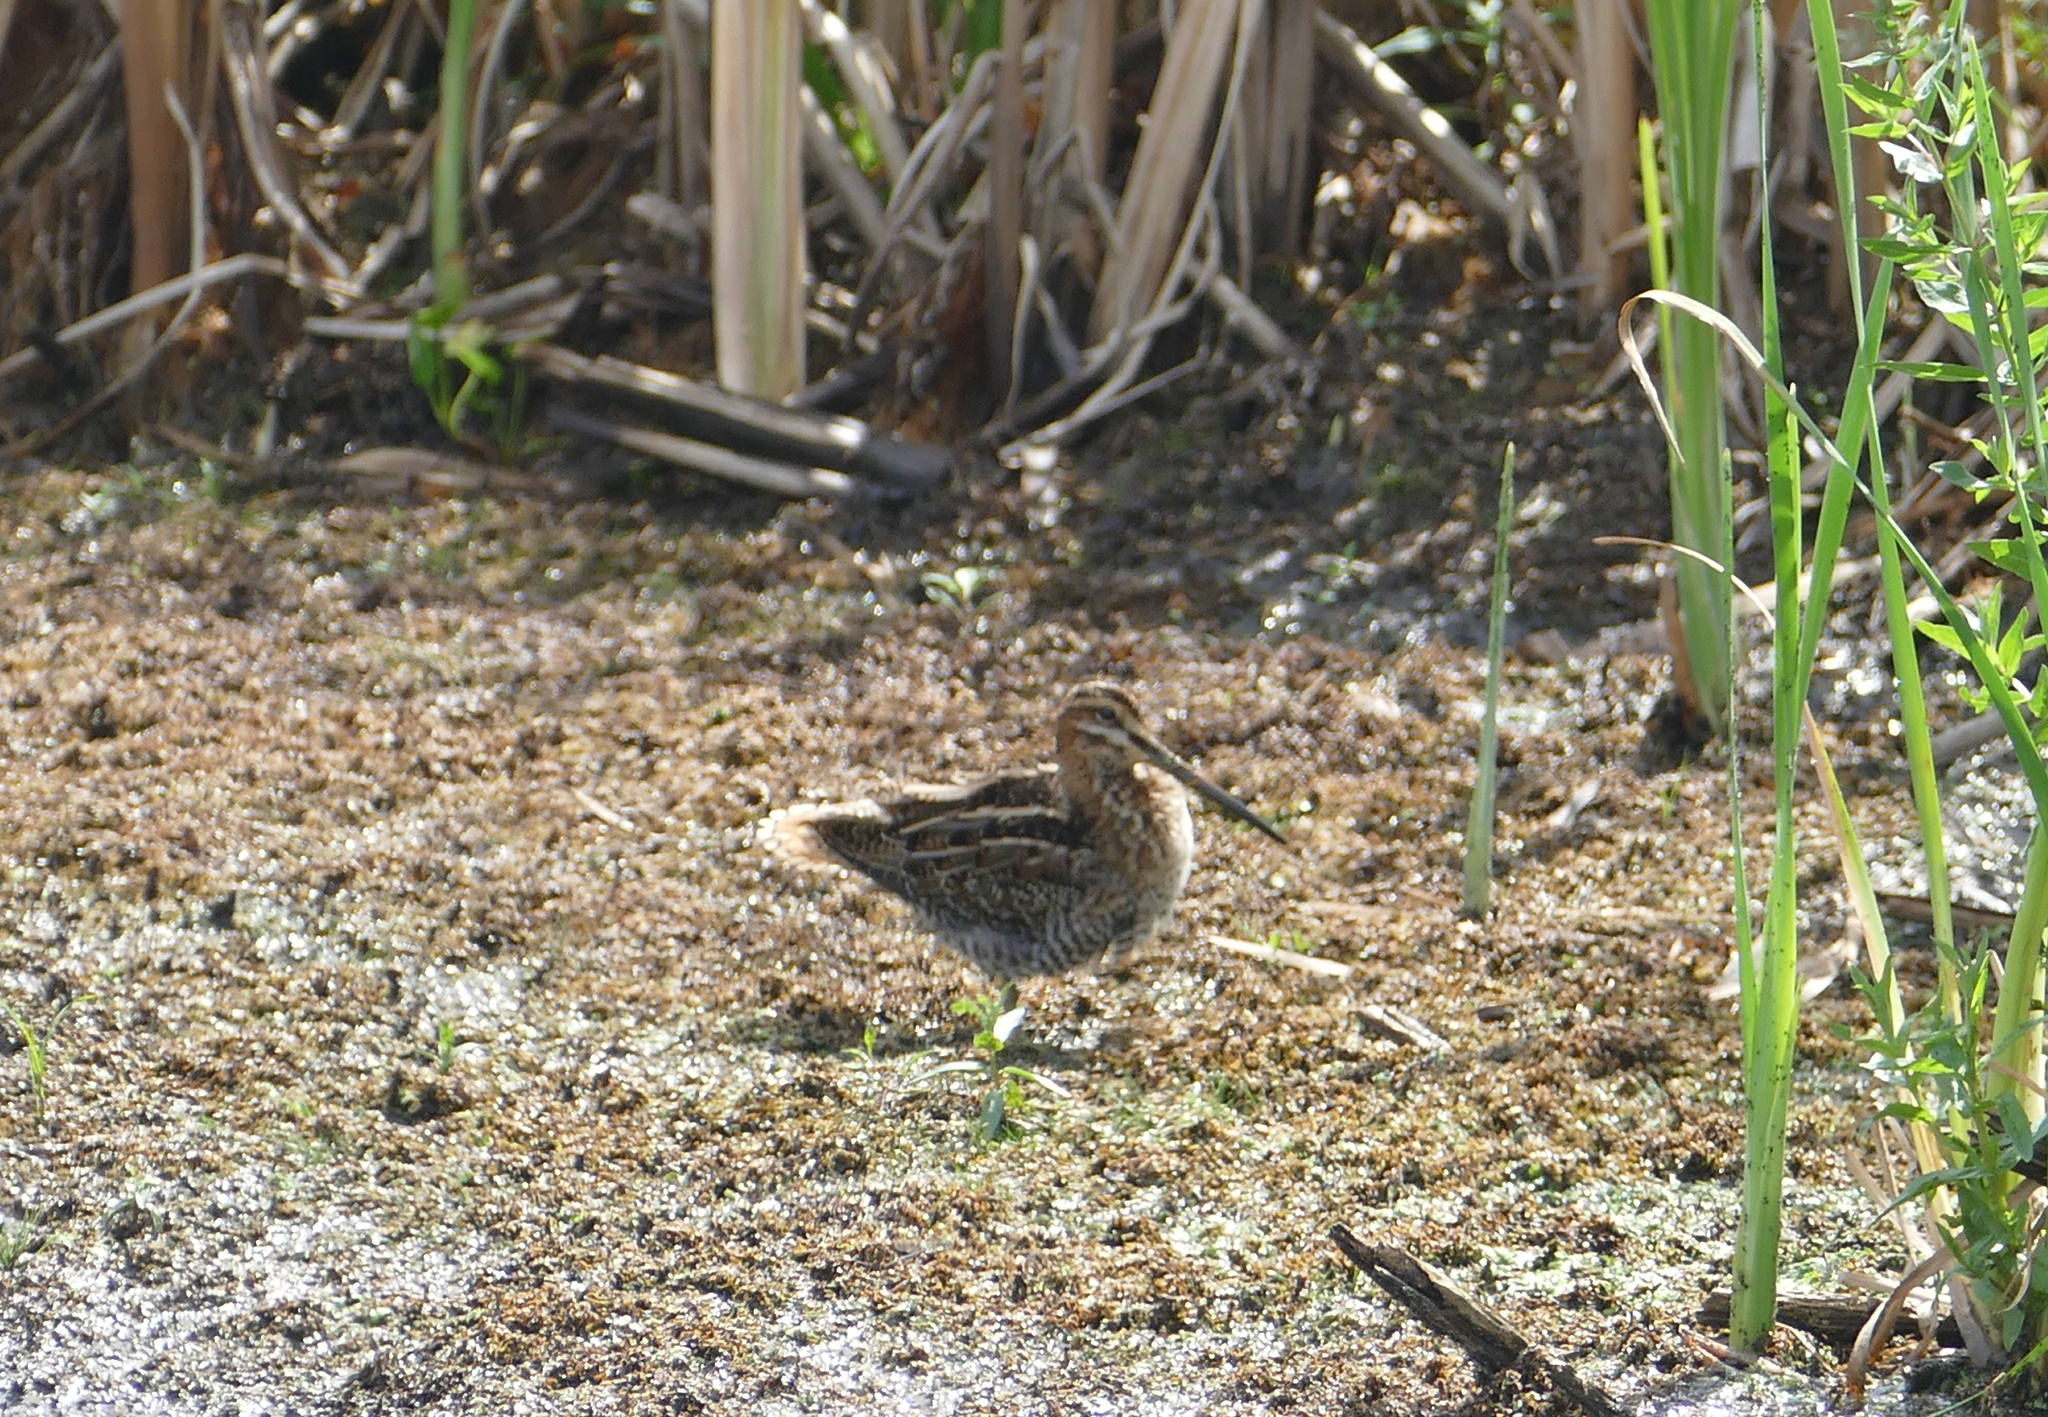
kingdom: Animalia
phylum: Chordata
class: Aves
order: Charadriiformes
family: Scolopacidae
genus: Gallinago
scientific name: Gallinago delicata
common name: Wilson's snipe
